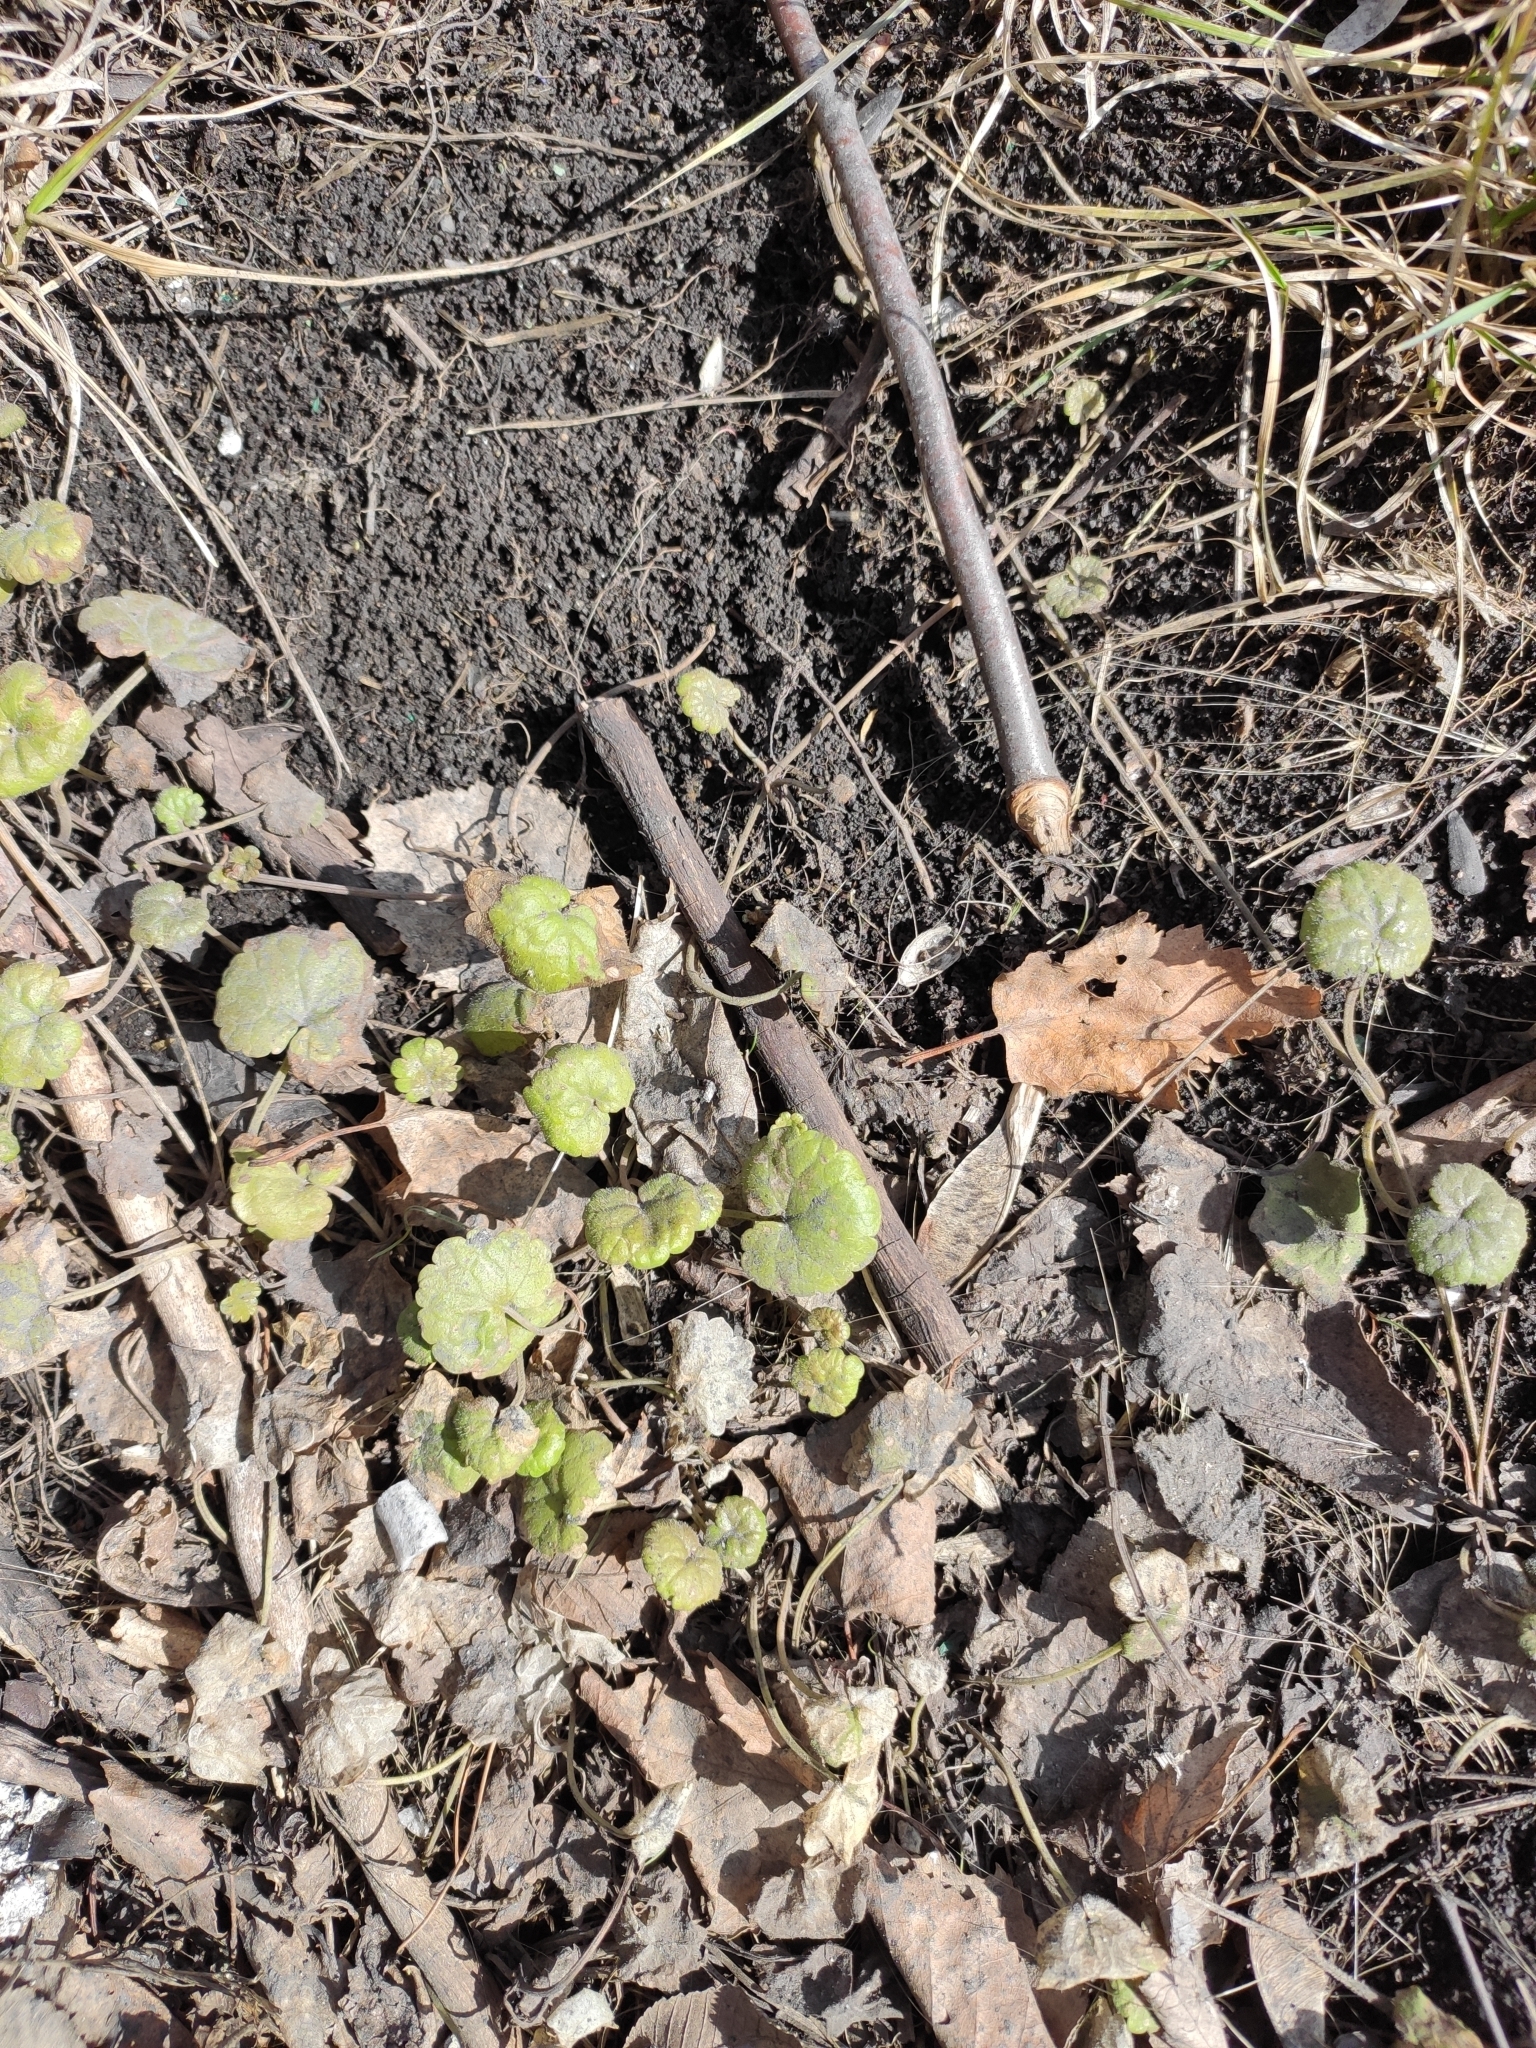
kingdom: Plantae
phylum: Tracheophyta
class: Magnoliopsida
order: Lamiales
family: Lamiaceae
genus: Glechoma
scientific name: Glechoma hederacea
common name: Ground ivy
